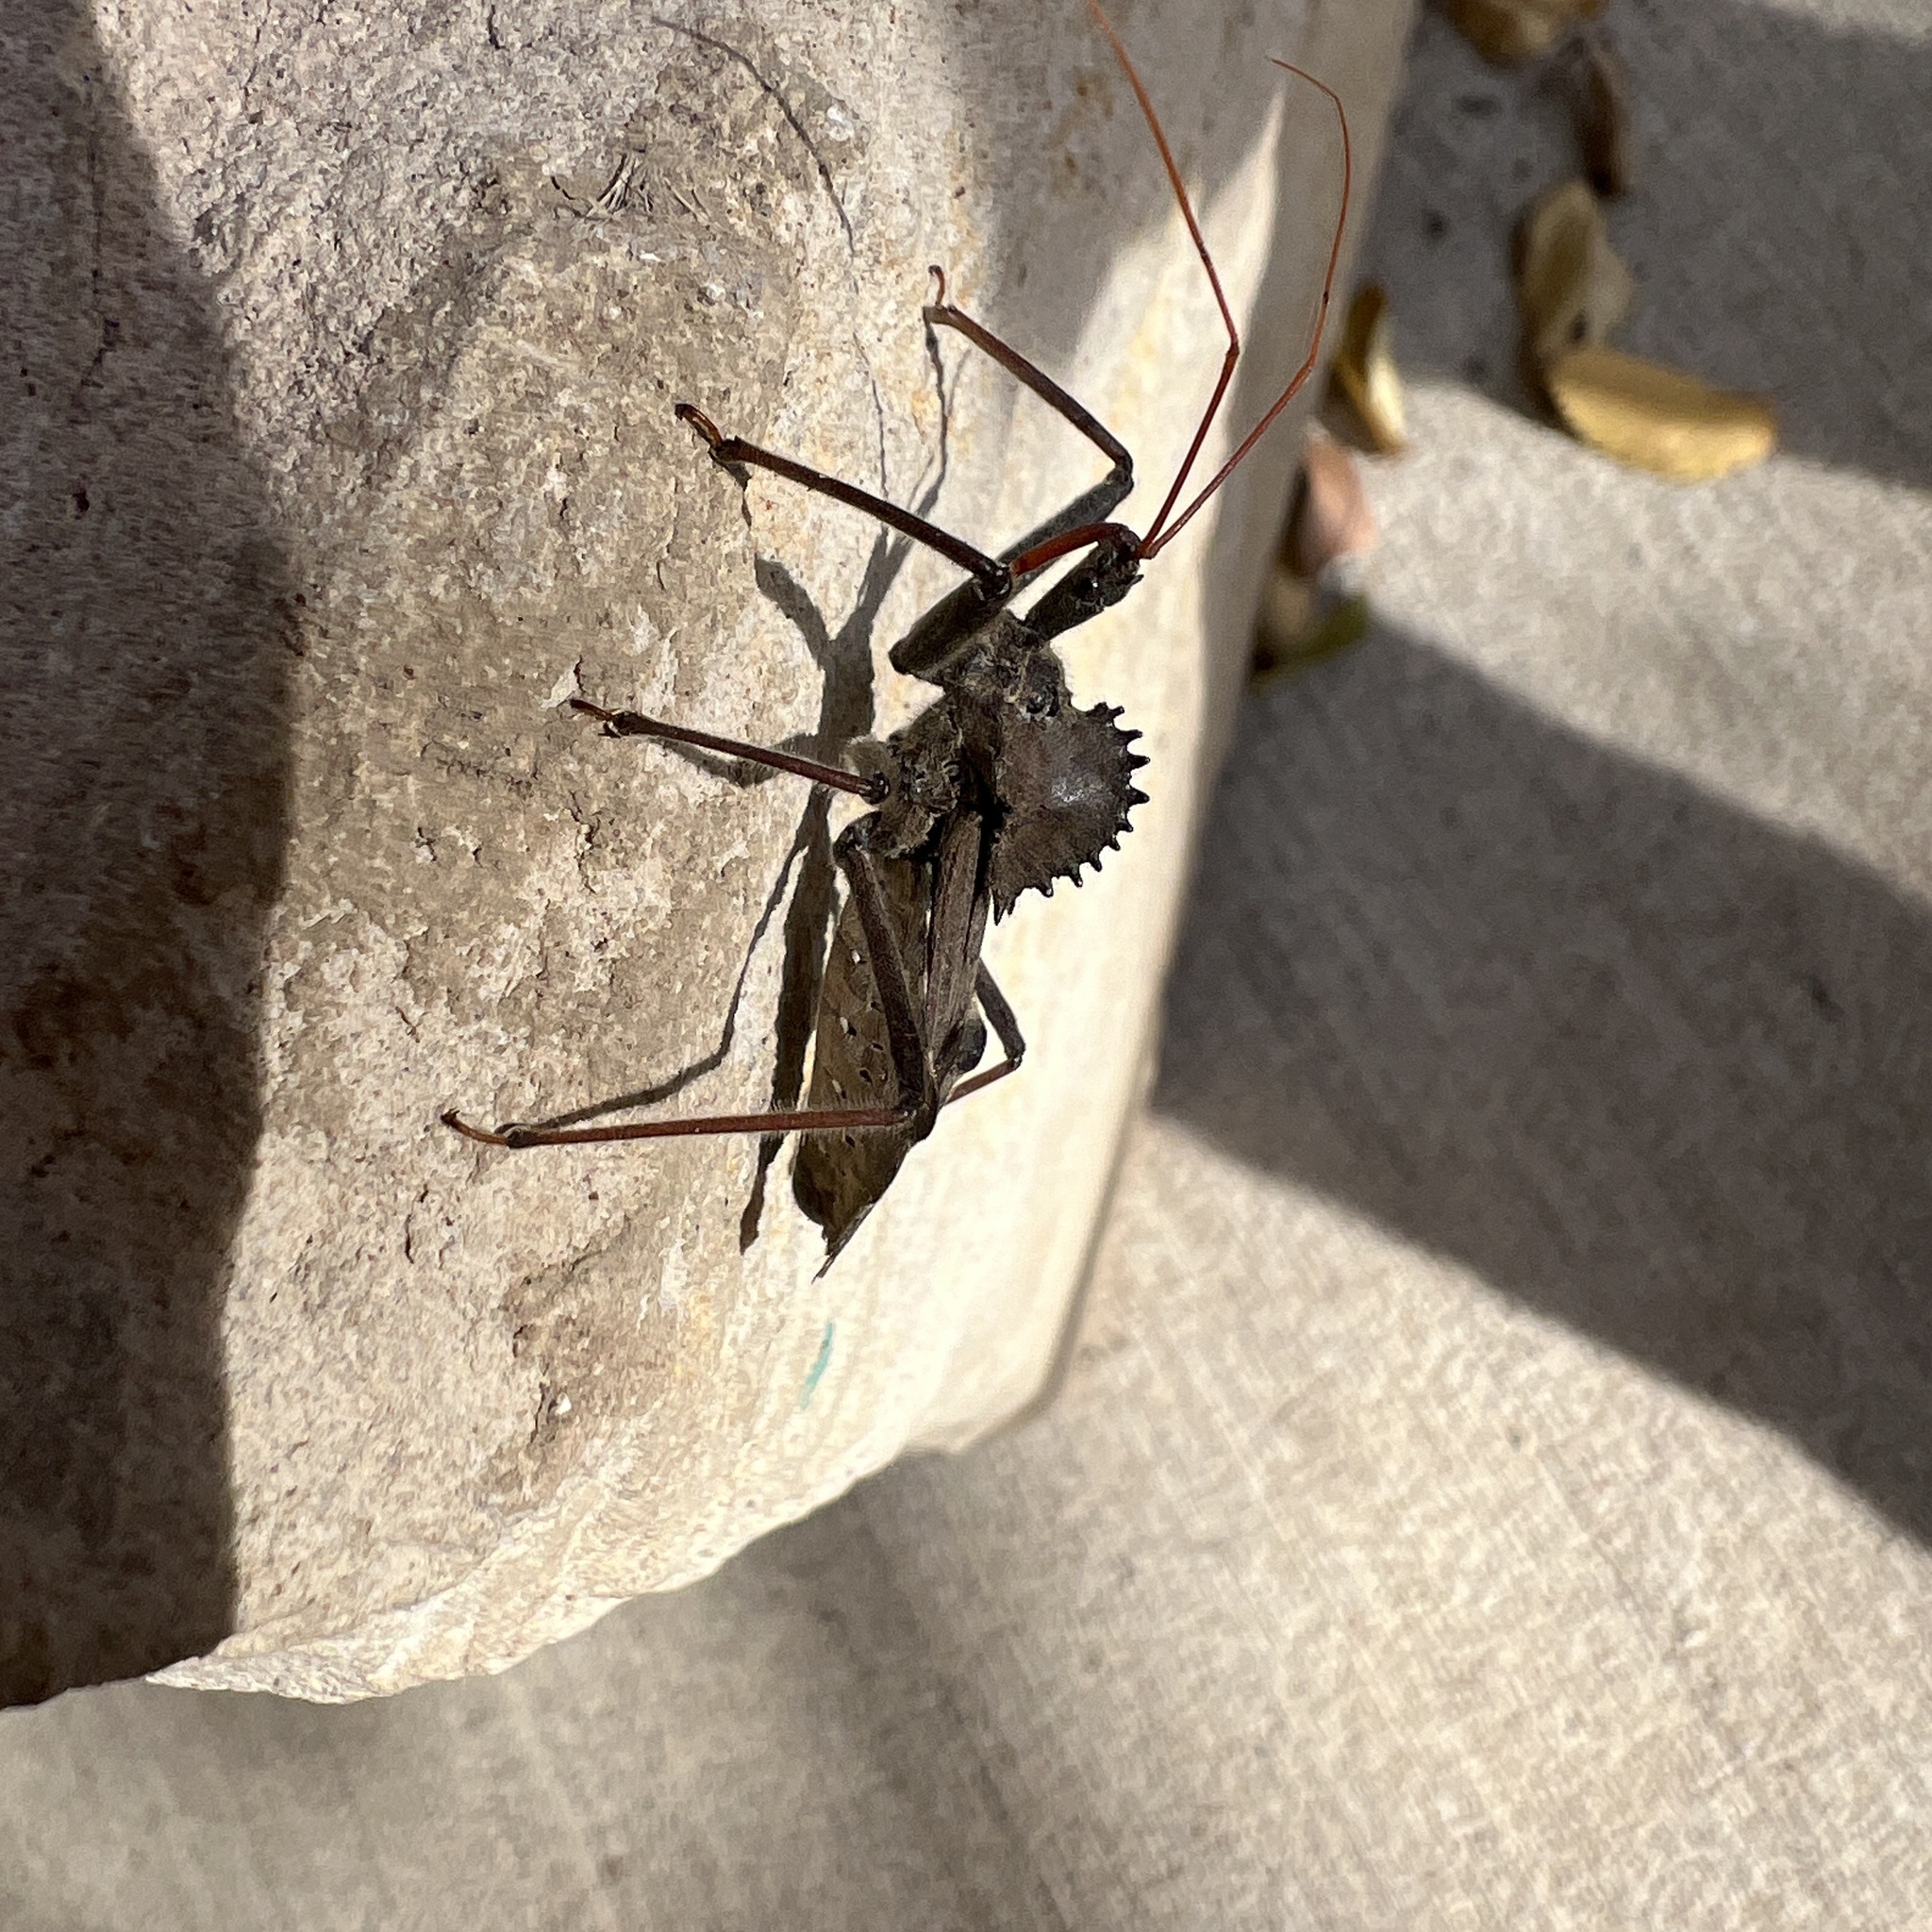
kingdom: Animalia
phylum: Arthropoda
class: Insecta
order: Hemiptera
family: Reduviidae
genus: Arilus
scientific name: Arilus cristatus
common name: North american wheel bug
